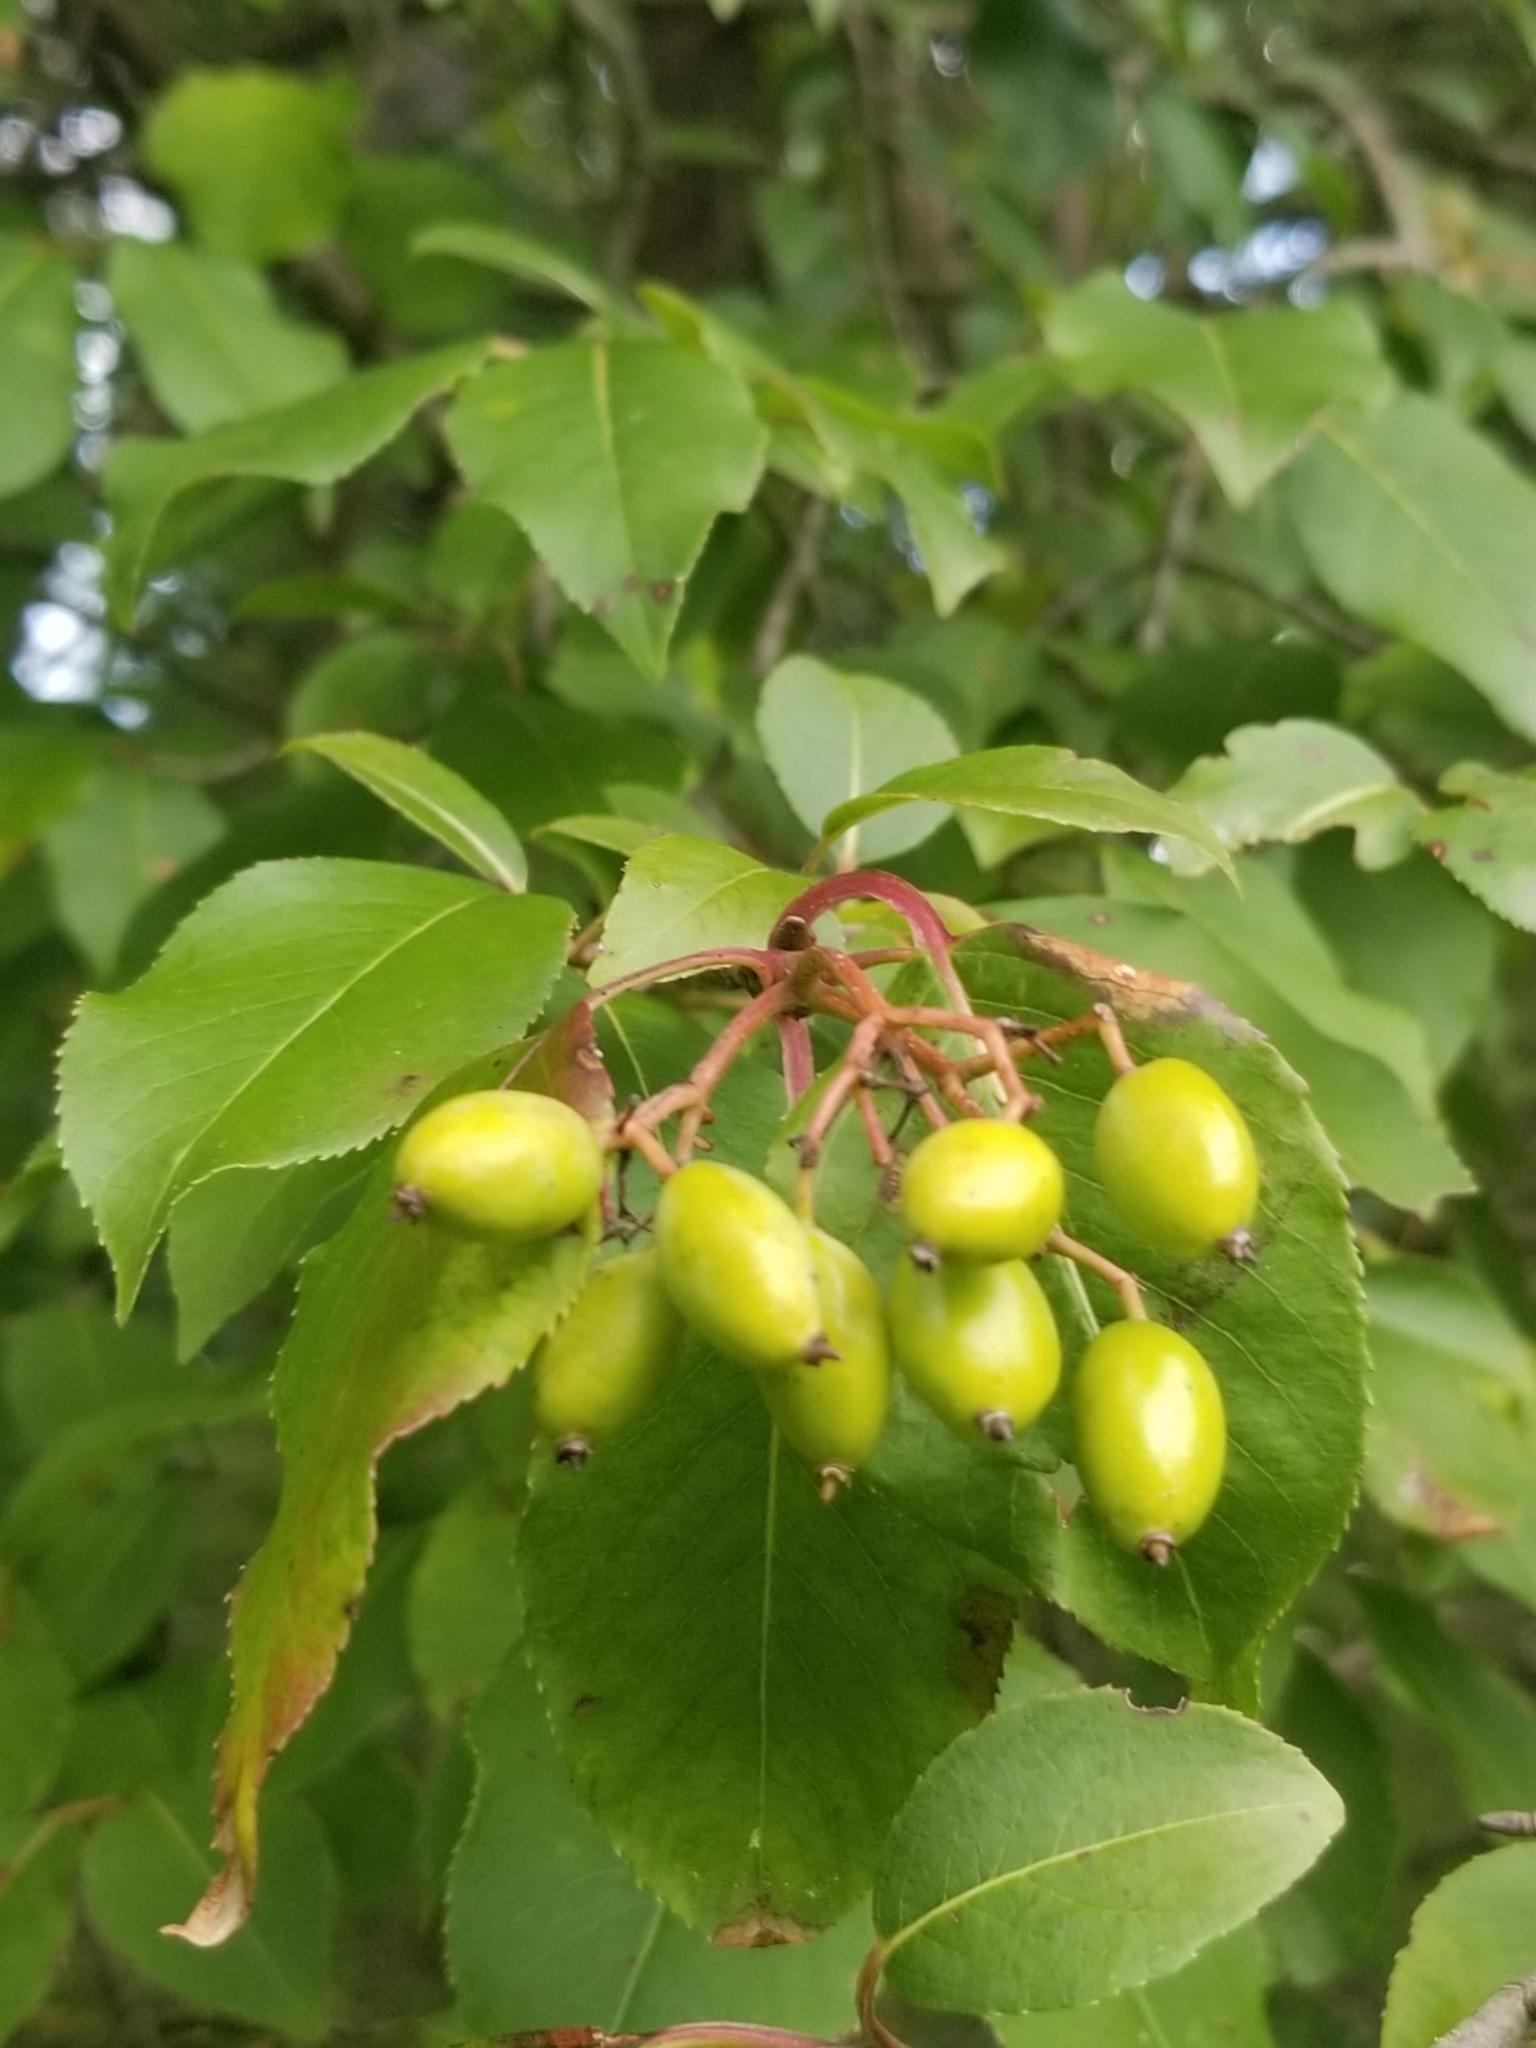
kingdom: Plantae
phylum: Tracheophyta
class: Magnoliopsida
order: Dipsacales
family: Viburnaceae
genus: Viburnum
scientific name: Viburnum prunifolium
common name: Black haw
